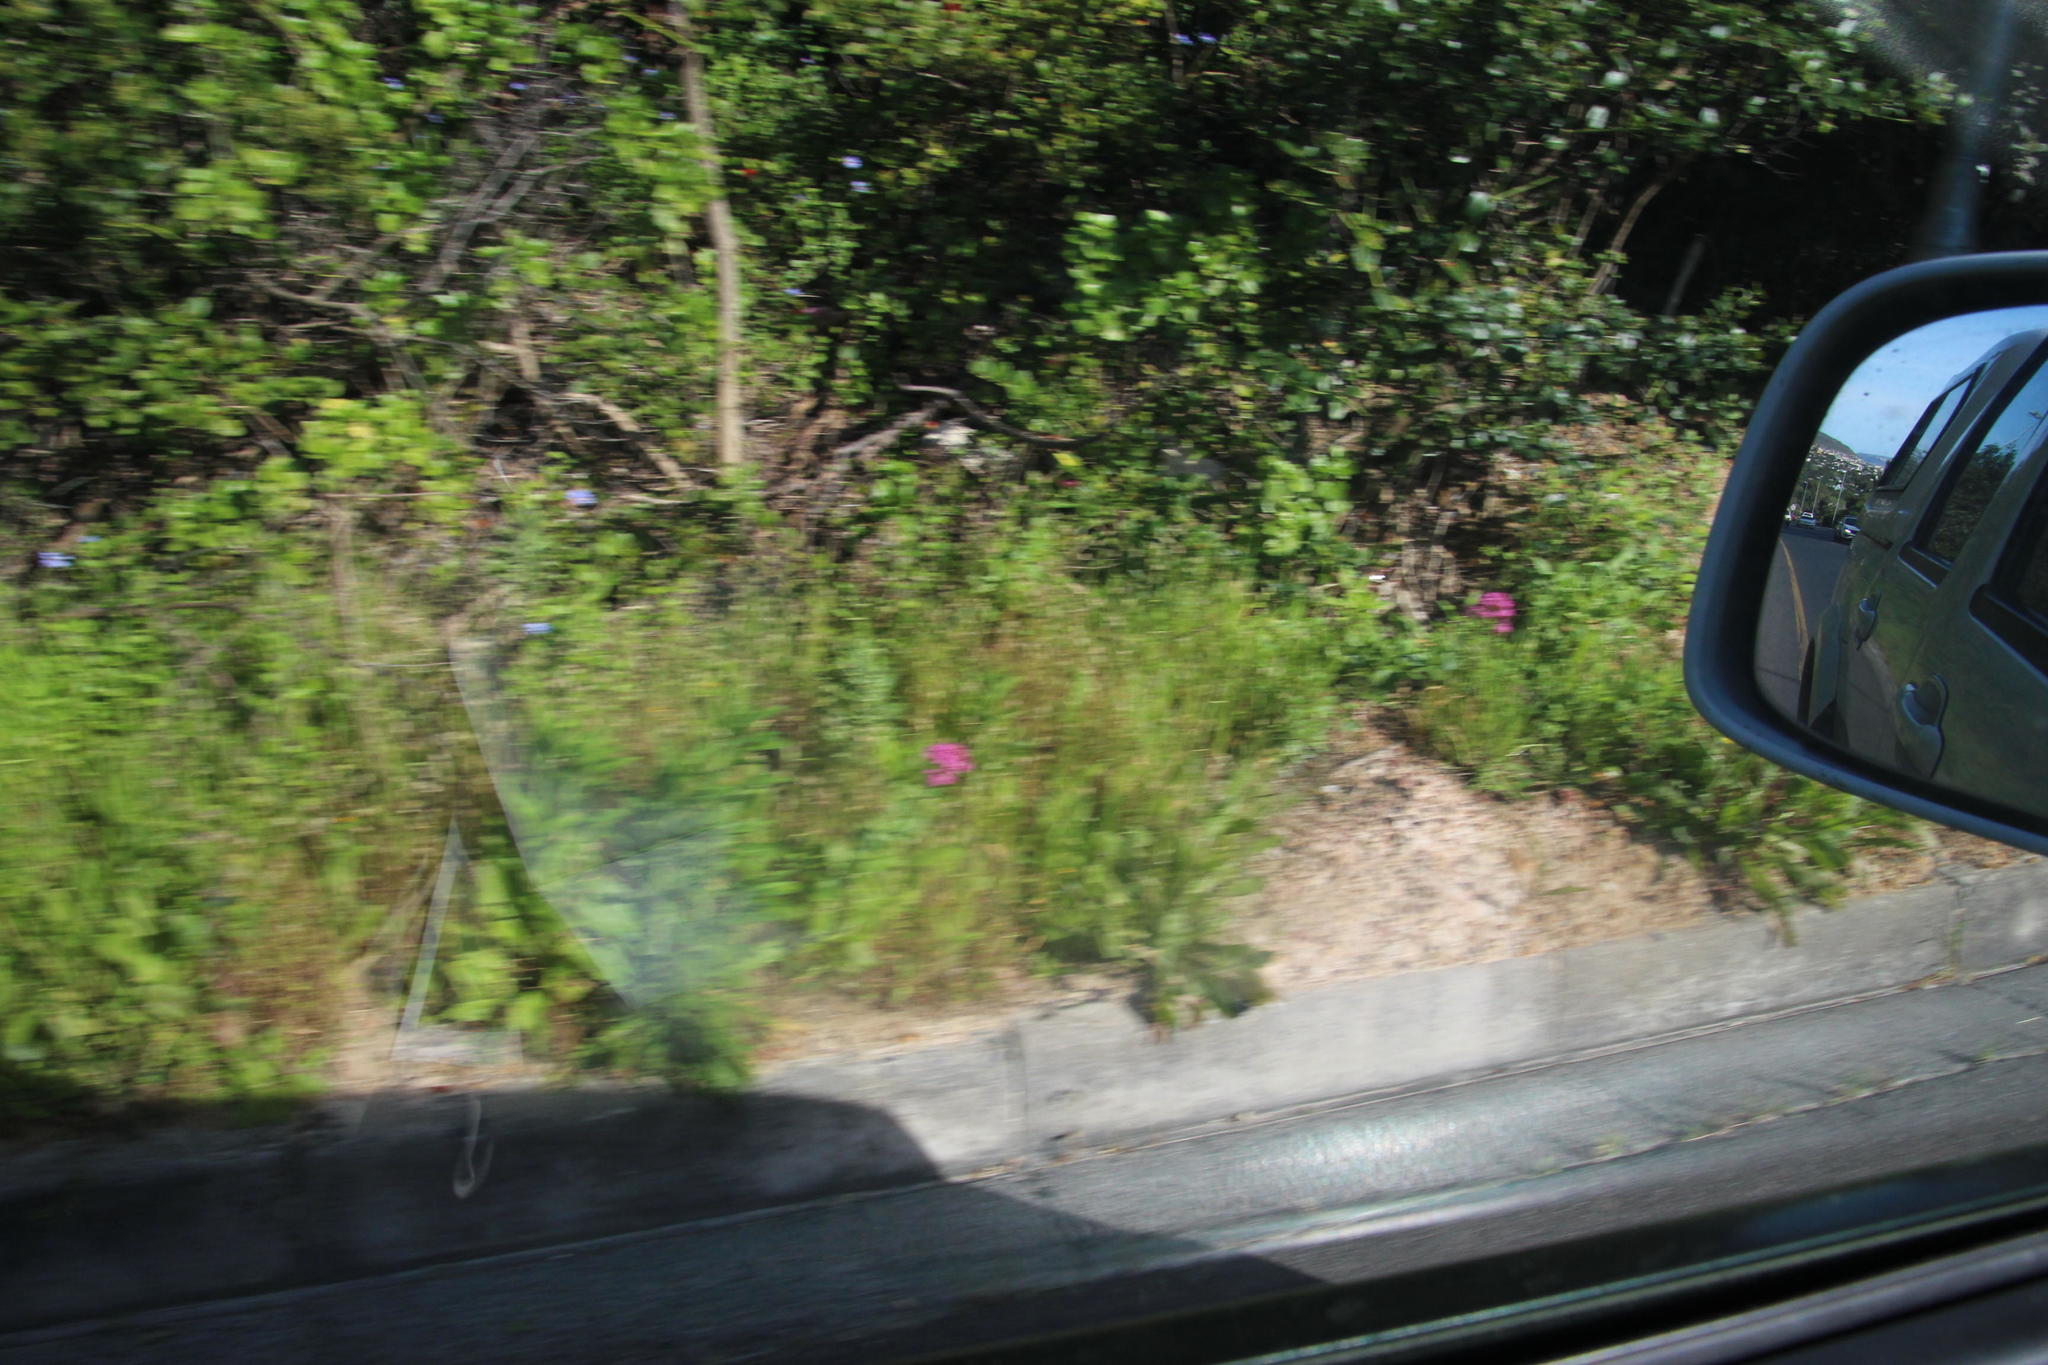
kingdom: Plantae
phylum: Tracheophyta
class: Magnoliopsida
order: Dipsacales
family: Caprifoliaceae
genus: Centranthus
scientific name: Centranthus ruber
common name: Red valerian
